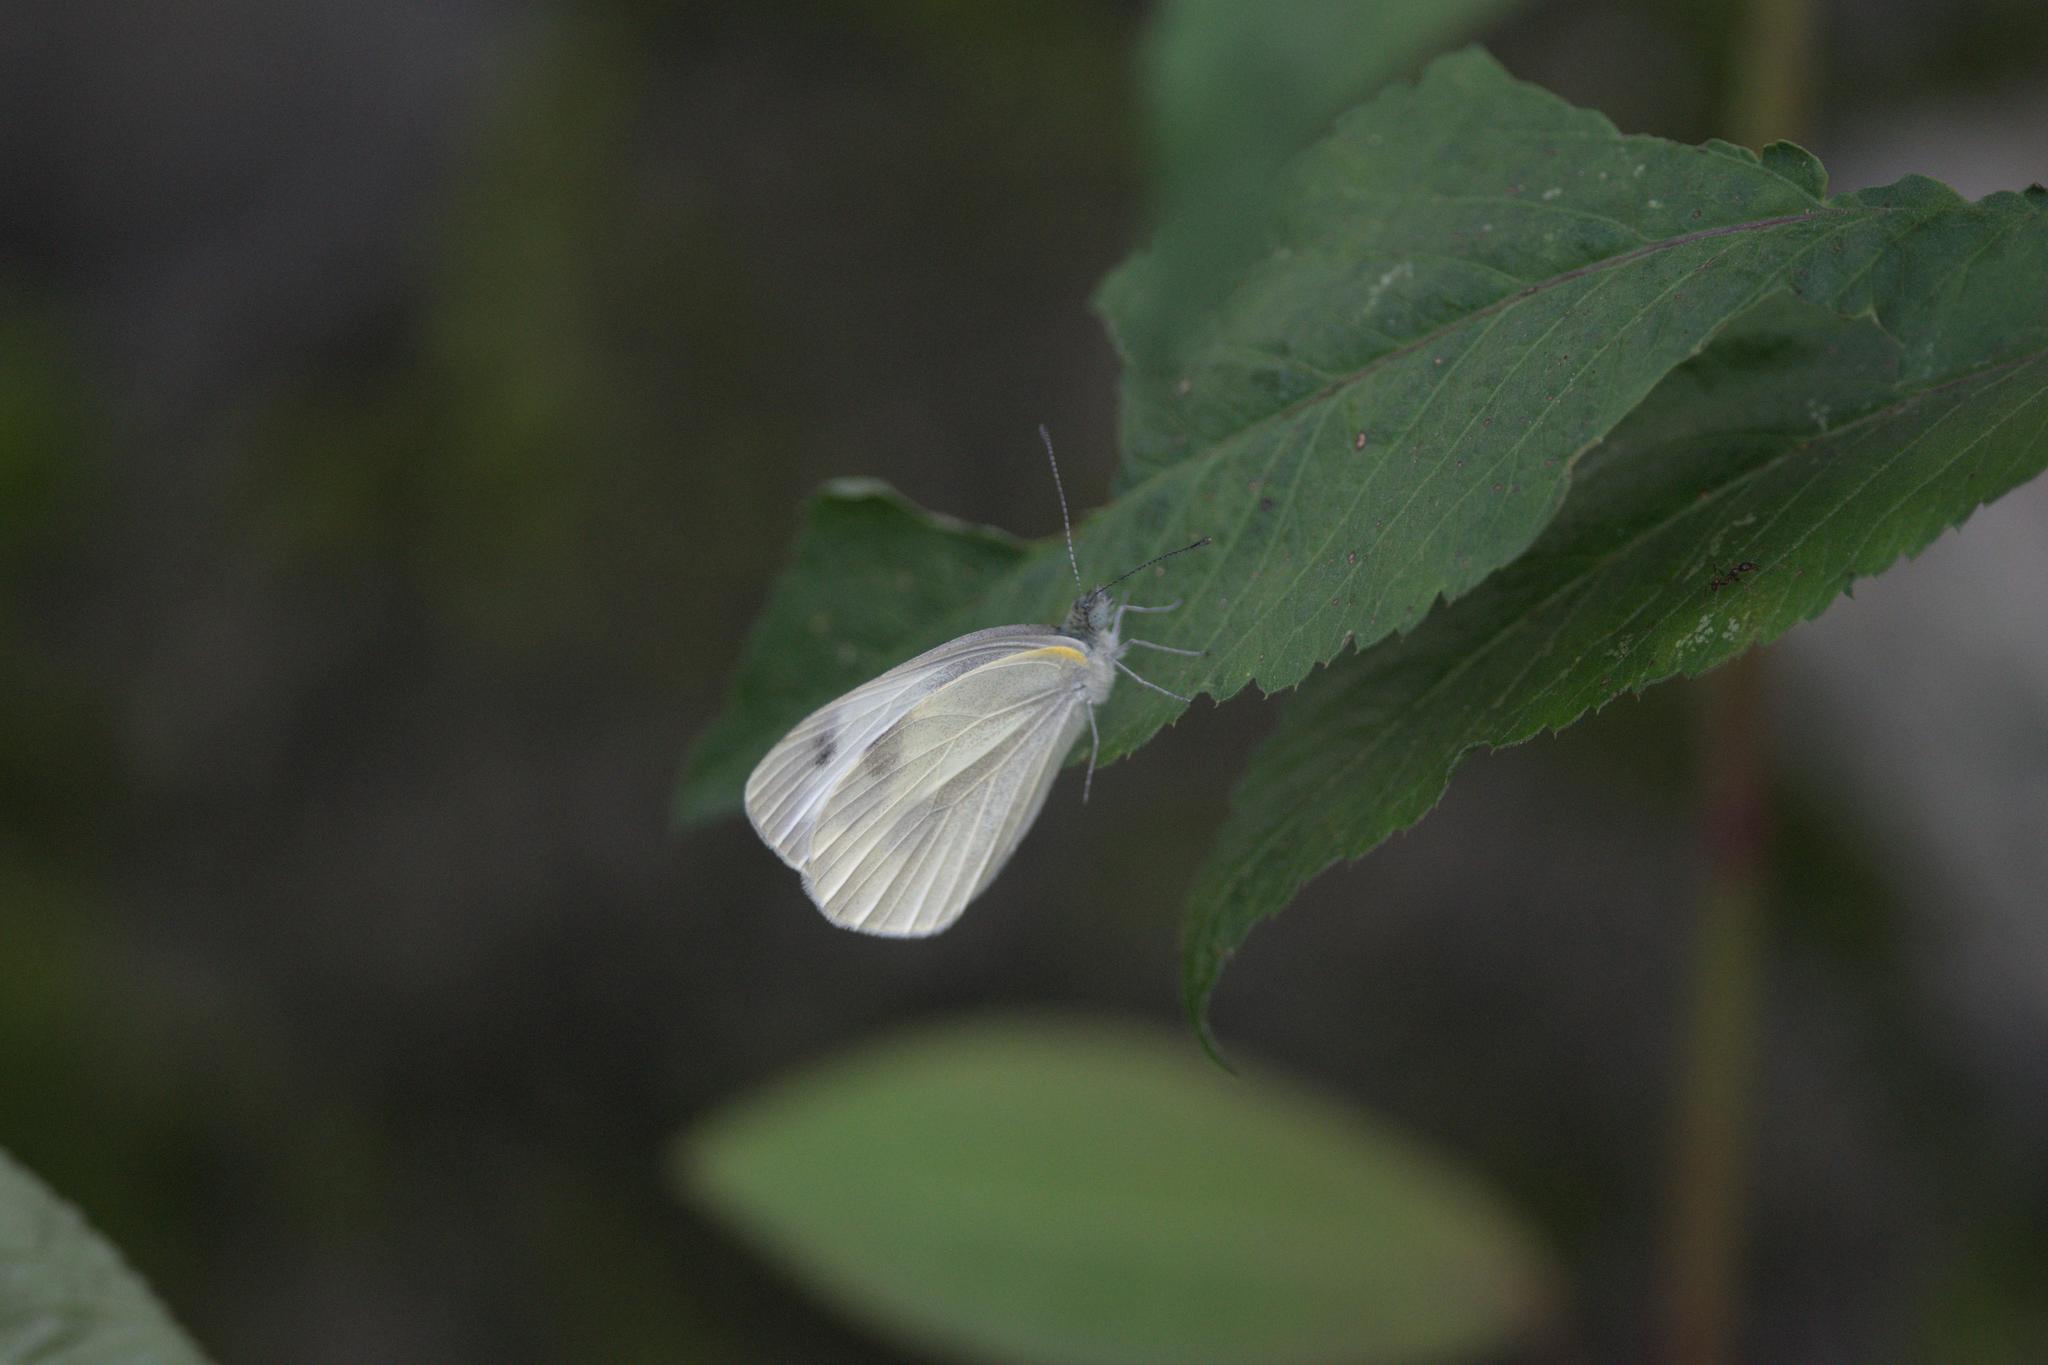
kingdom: Animalia
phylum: Arthropoda
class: Insecta
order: Lepidoptera
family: Pieridae
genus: Pieris
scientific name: Pieris canidia
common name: Indian cabbage white
